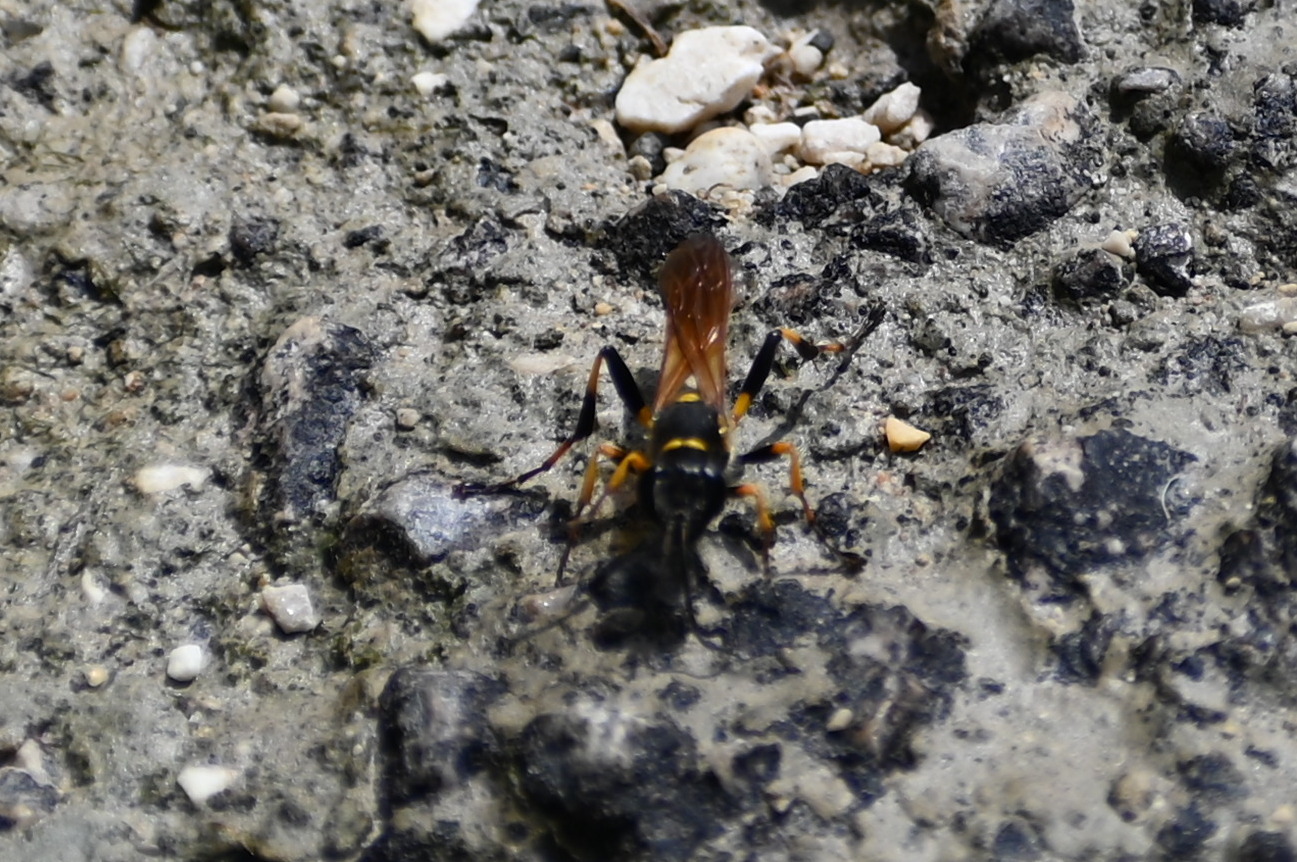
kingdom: Animalia
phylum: Arthropoda
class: Insecta
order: Hymenoptera
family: Sphecidae
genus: Sceliphron
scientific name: Sceliphron madraspatanum
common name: Mud dauber
